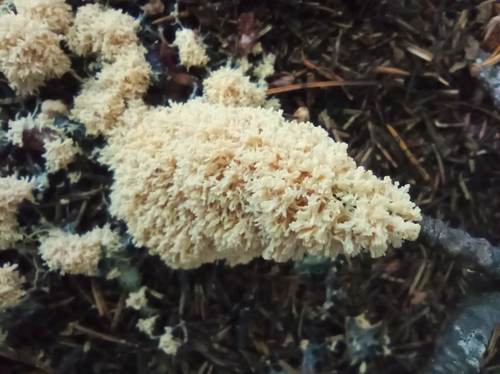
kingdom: Protozoa
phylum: Mycetozoa
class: Myxomycetes
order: Physarales
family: Didymiaceae
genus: Mucilago
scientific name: Mucilago crustacea
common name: Dog vomit slime mould
